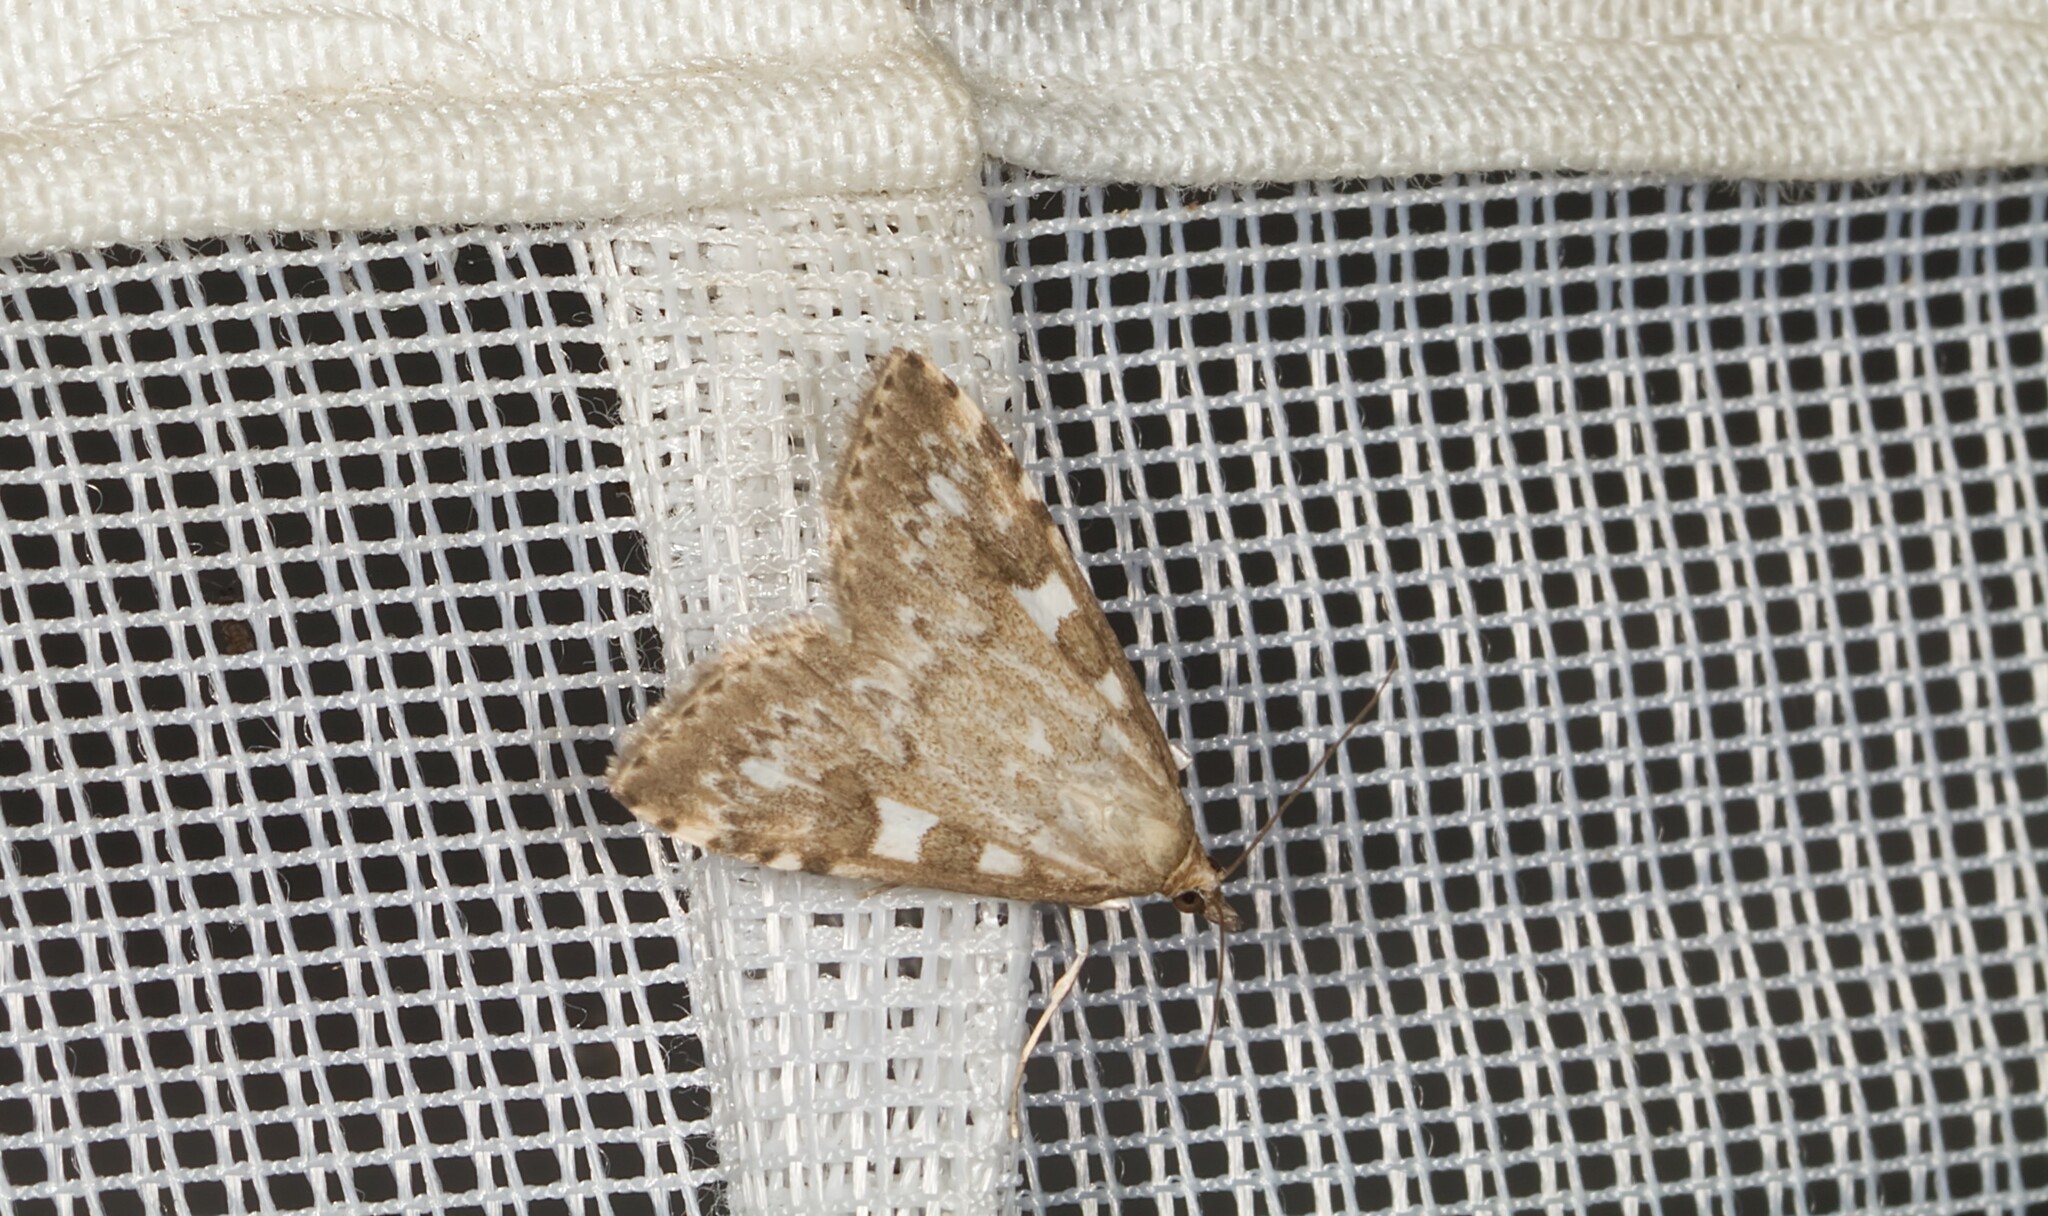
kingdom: Animalia
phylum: Arthropoda
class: Insecta
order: Lepidoptera
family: Crambidae
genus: Udea
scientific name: Udea olivalis
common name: Olive pearl
